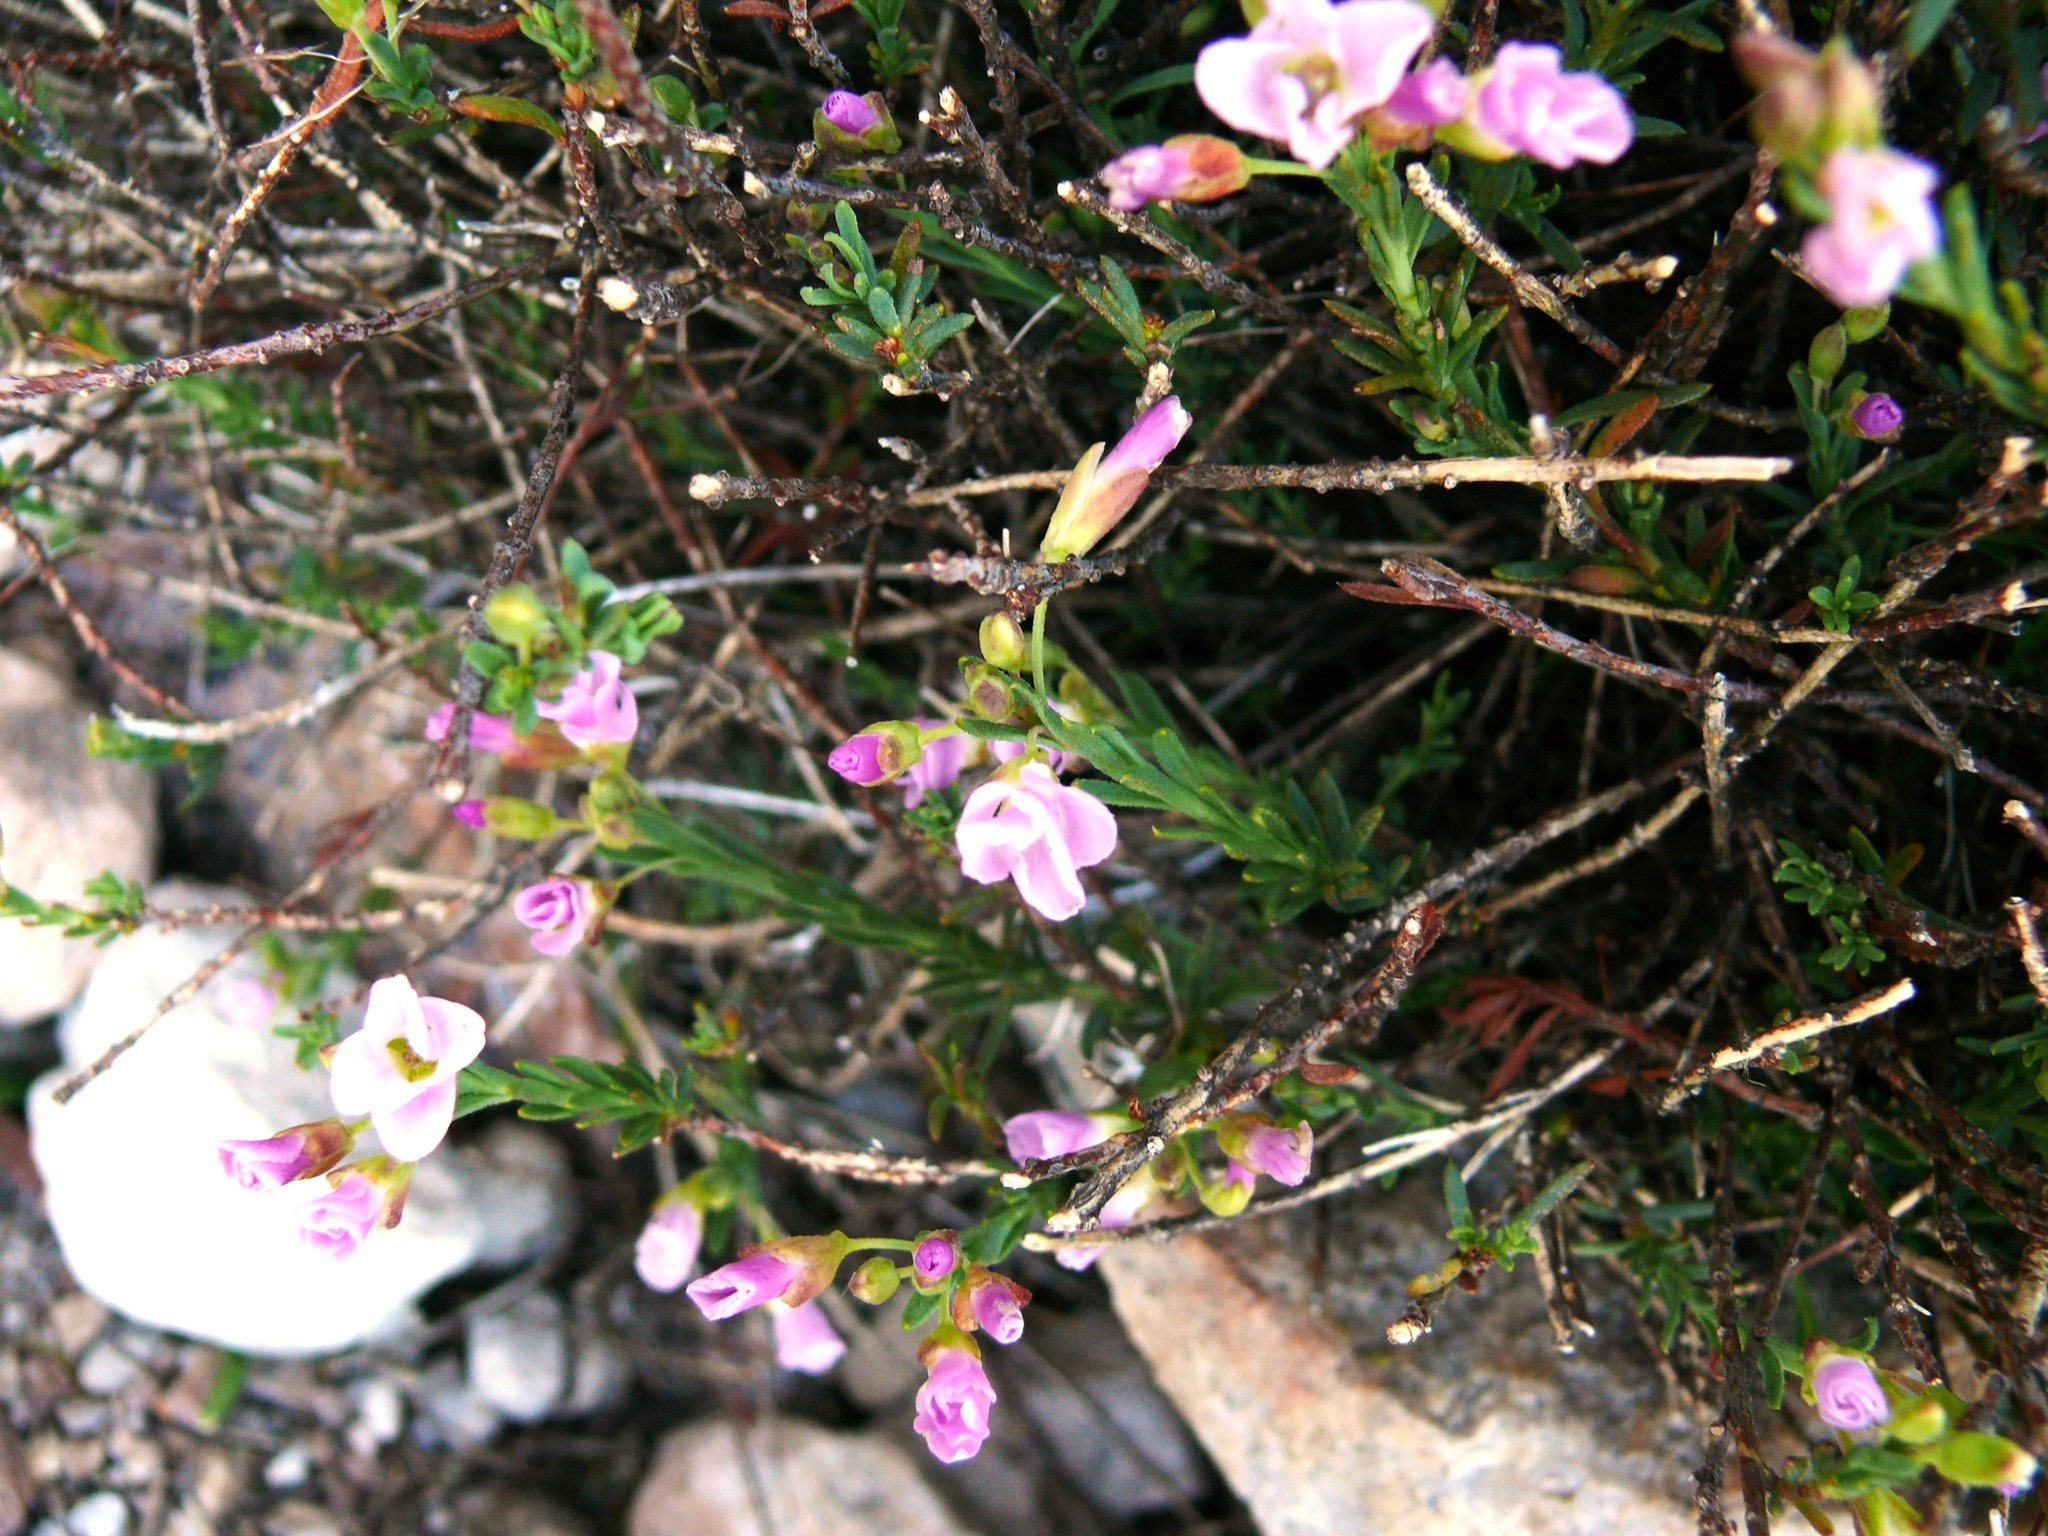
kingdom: Plantae
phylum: Tracheophyta
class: Magnoliopsida
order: Brassicales
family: Brassicaceae
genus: Heliophila
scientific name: Heliophila cedarbergensis
